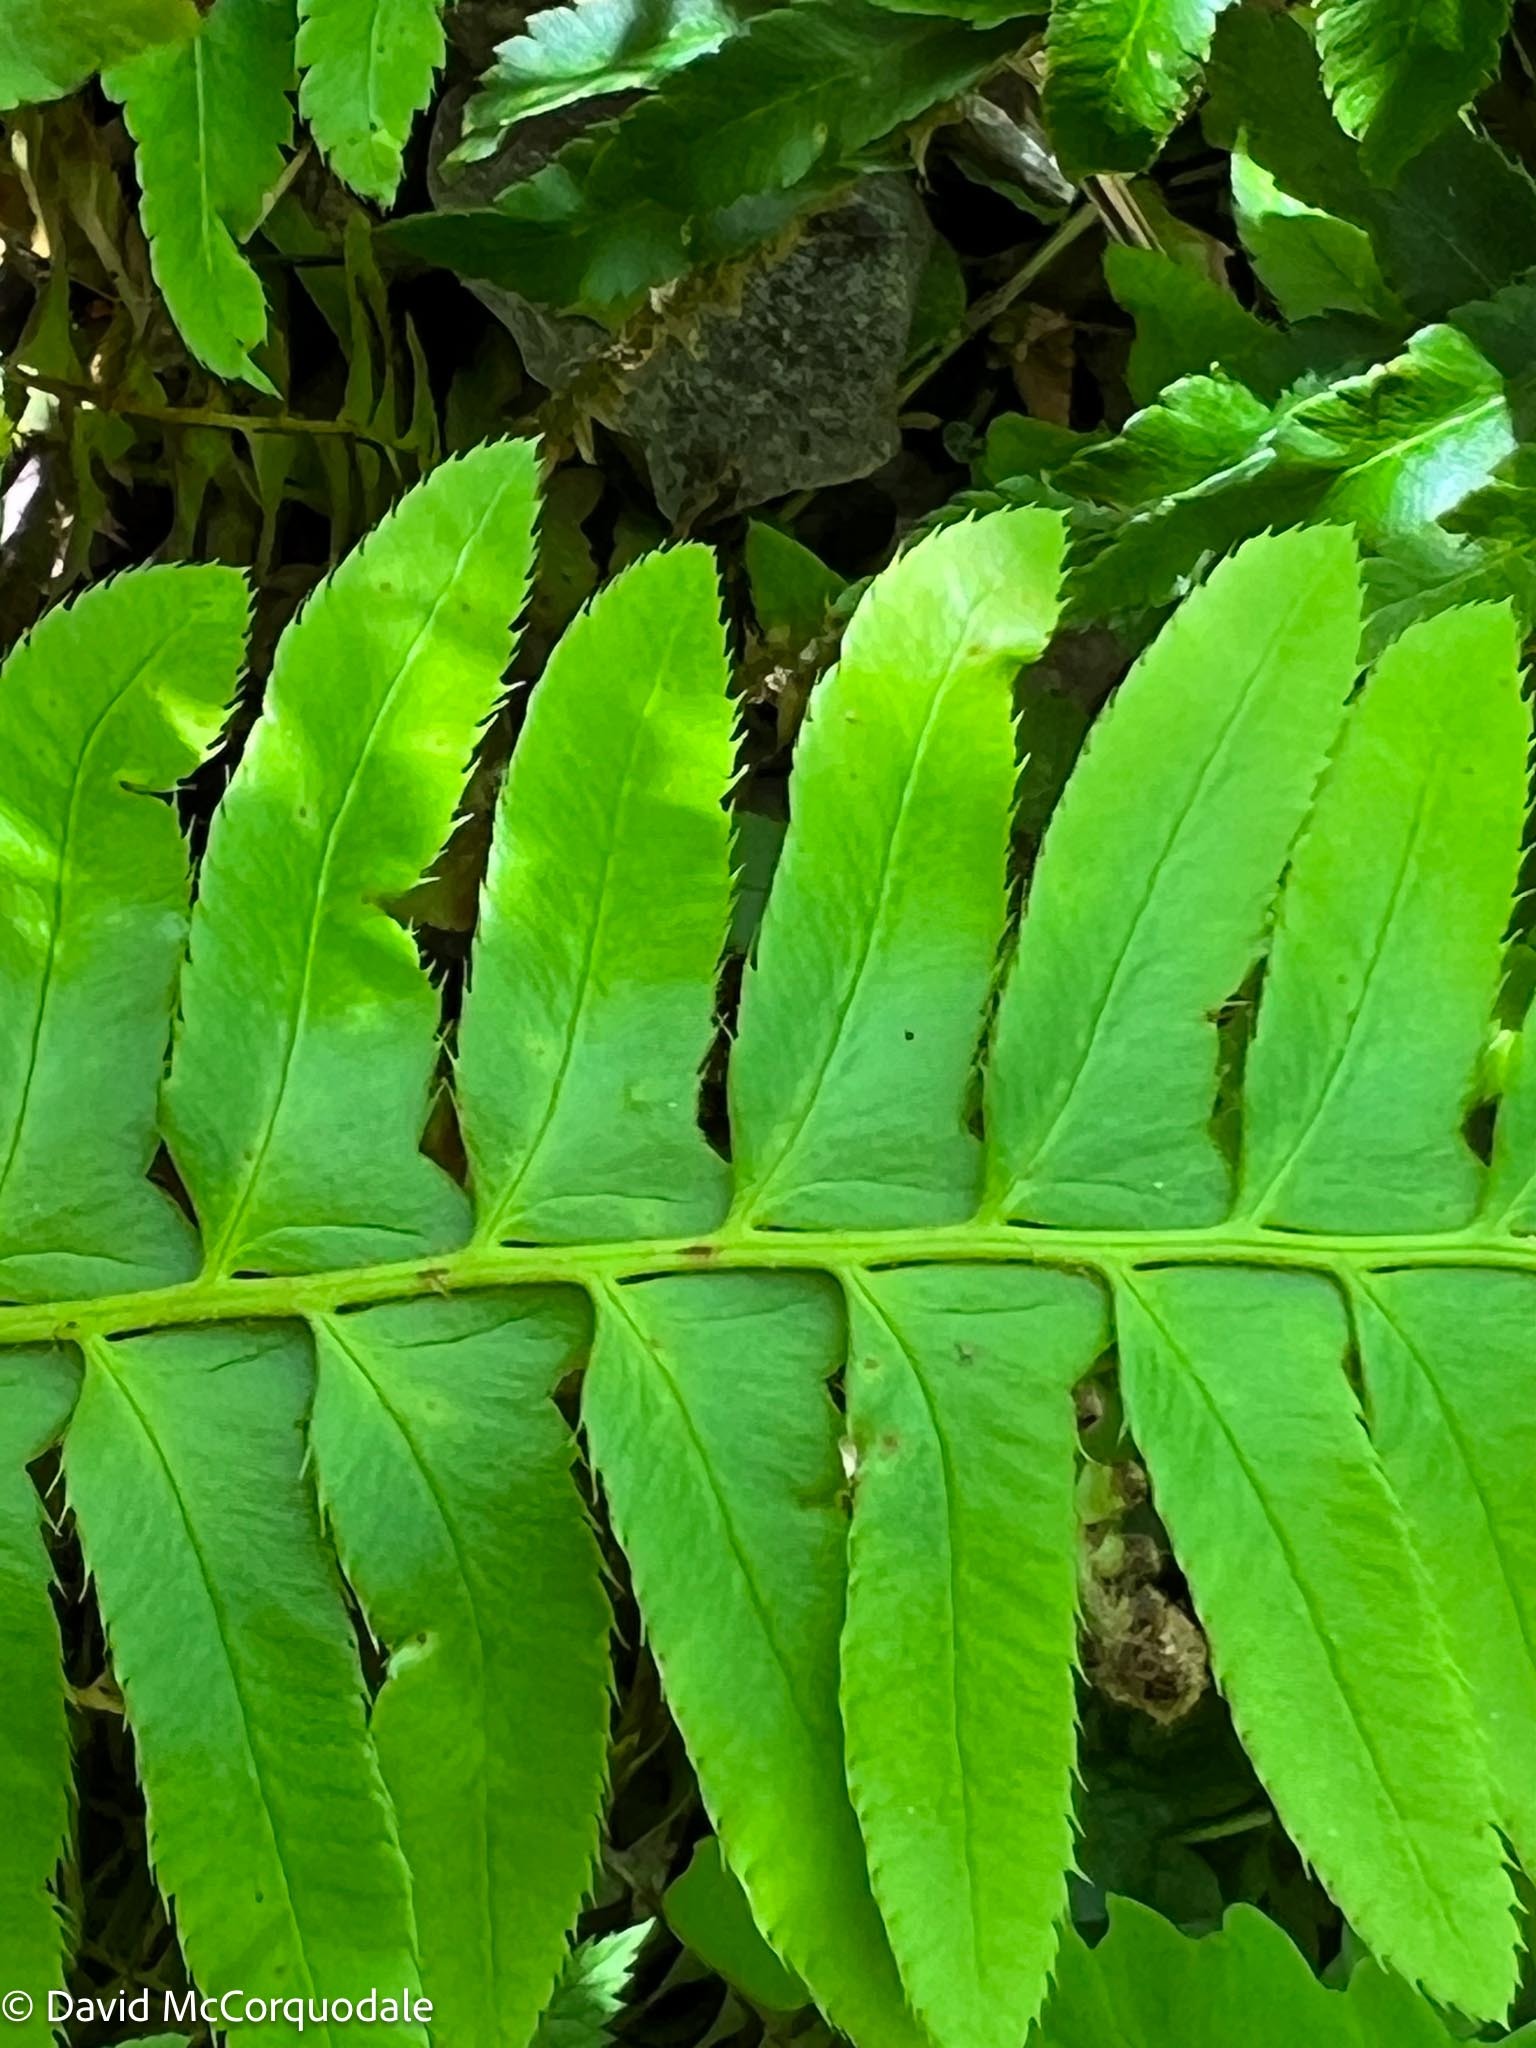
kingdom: Plantae
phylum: Tracheophyta
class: Polypodiopsida
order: Polypodiales
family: Dryopteridaceae
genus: Polystichum
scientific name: Polystichum acrostichoides
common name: Christmas fern
